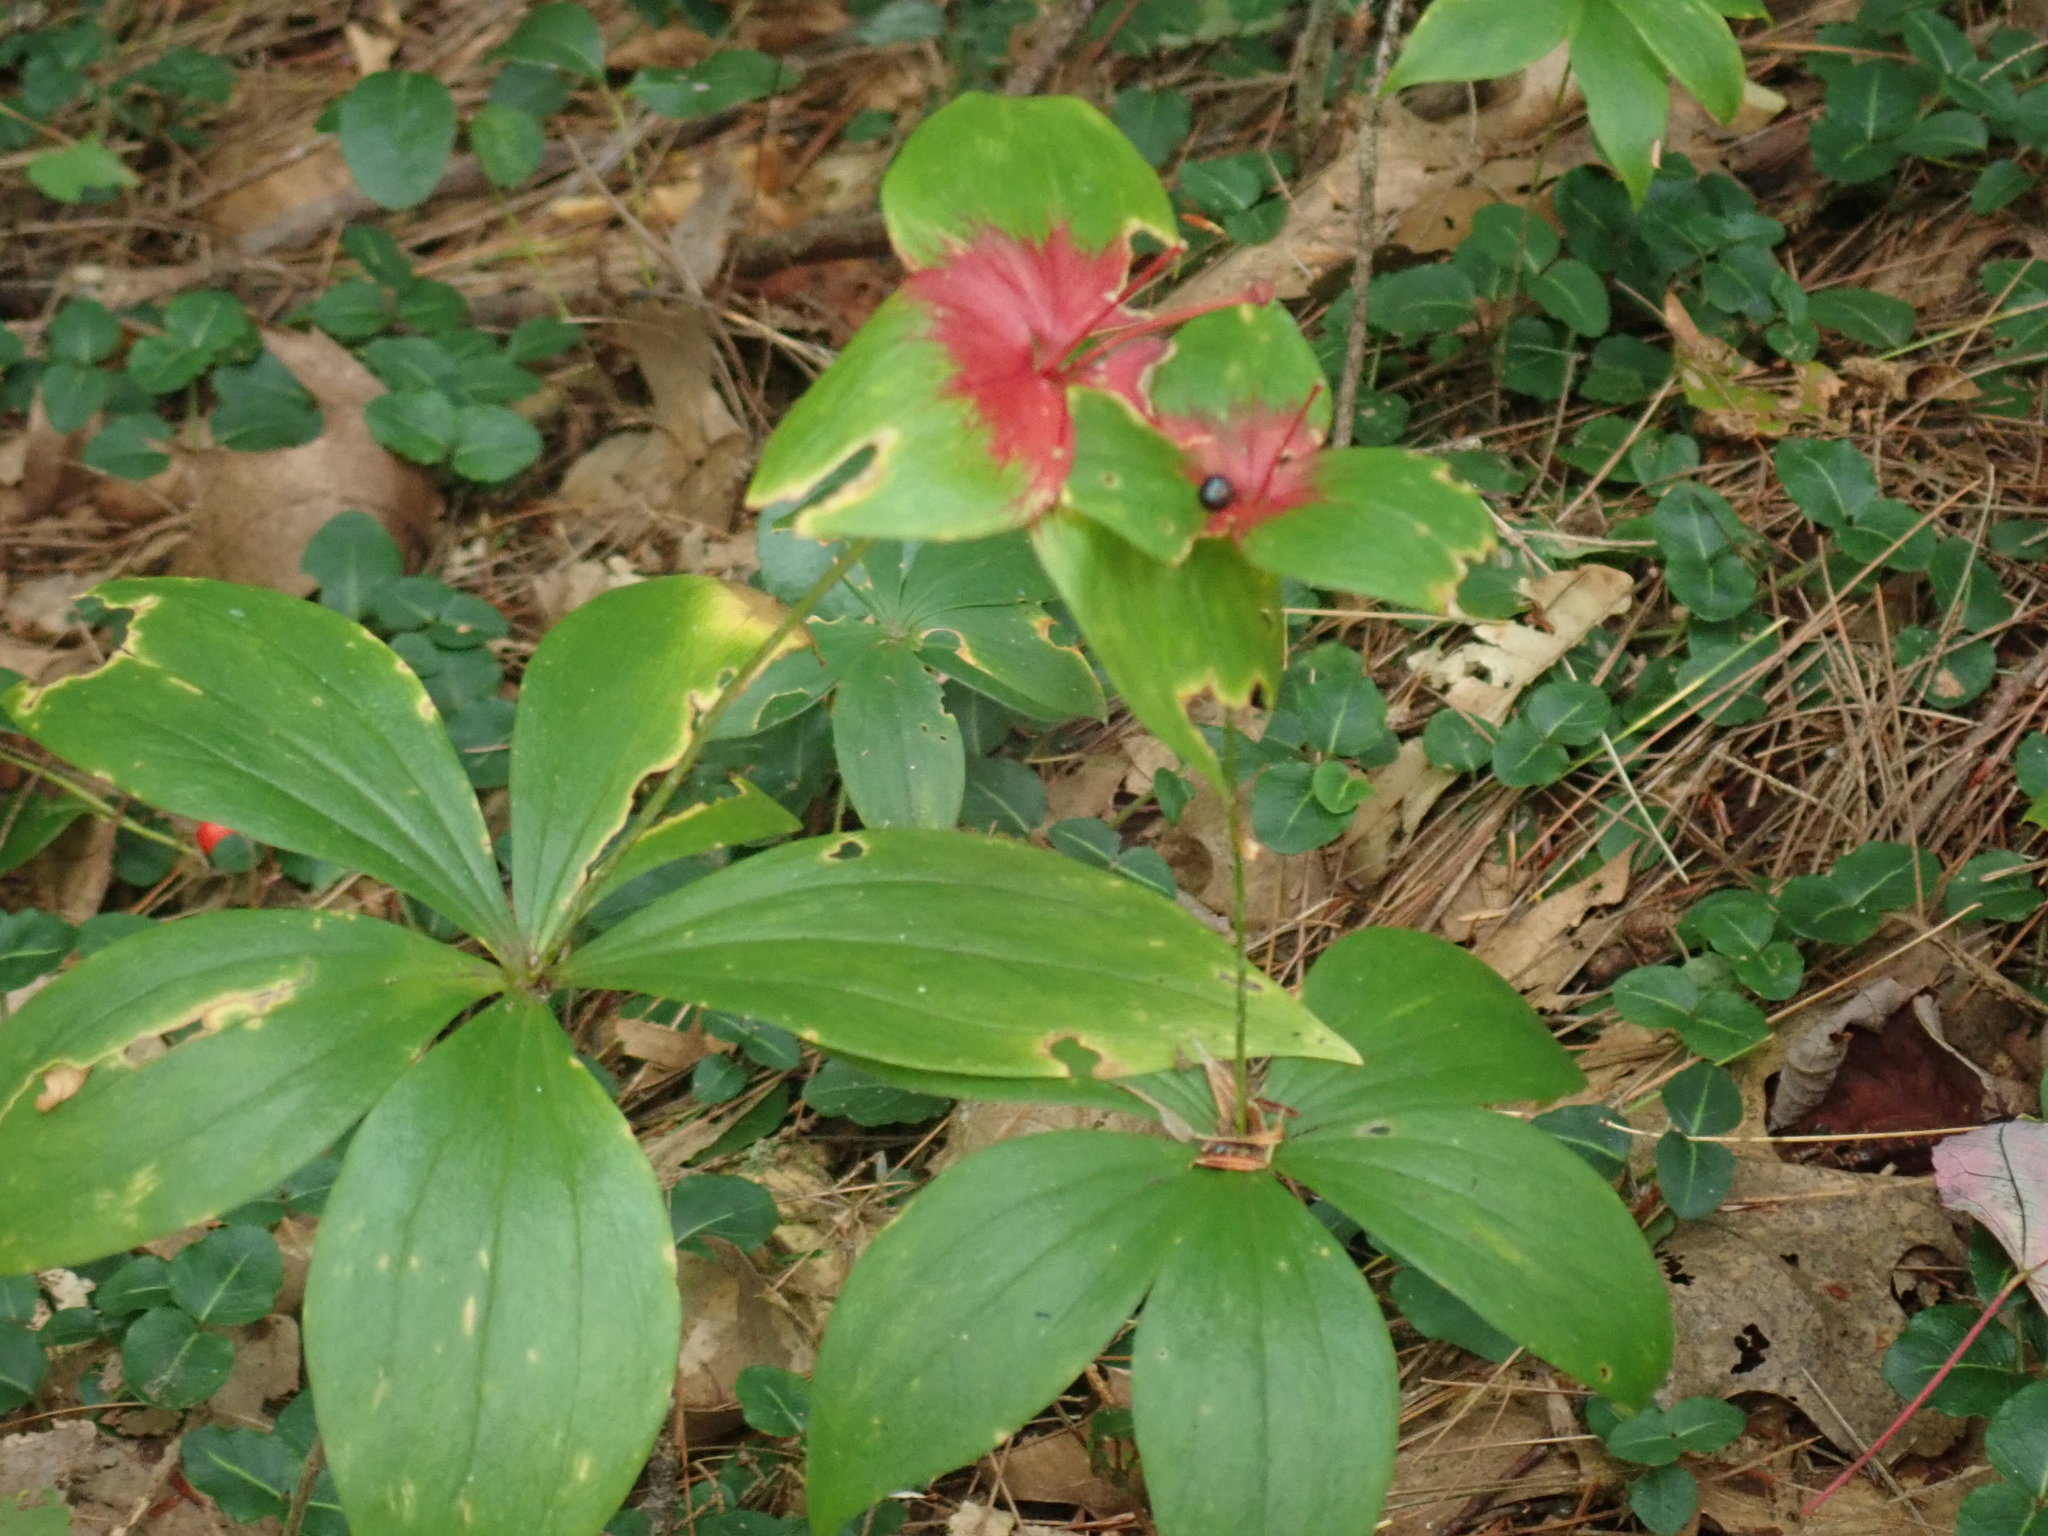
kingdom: Plantae
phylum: Tracheophyta
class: Liliopsida
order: Liliales
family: Liliaceae
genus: Medeola
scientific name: Medeola virginiana
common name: Indian cucumber-root
